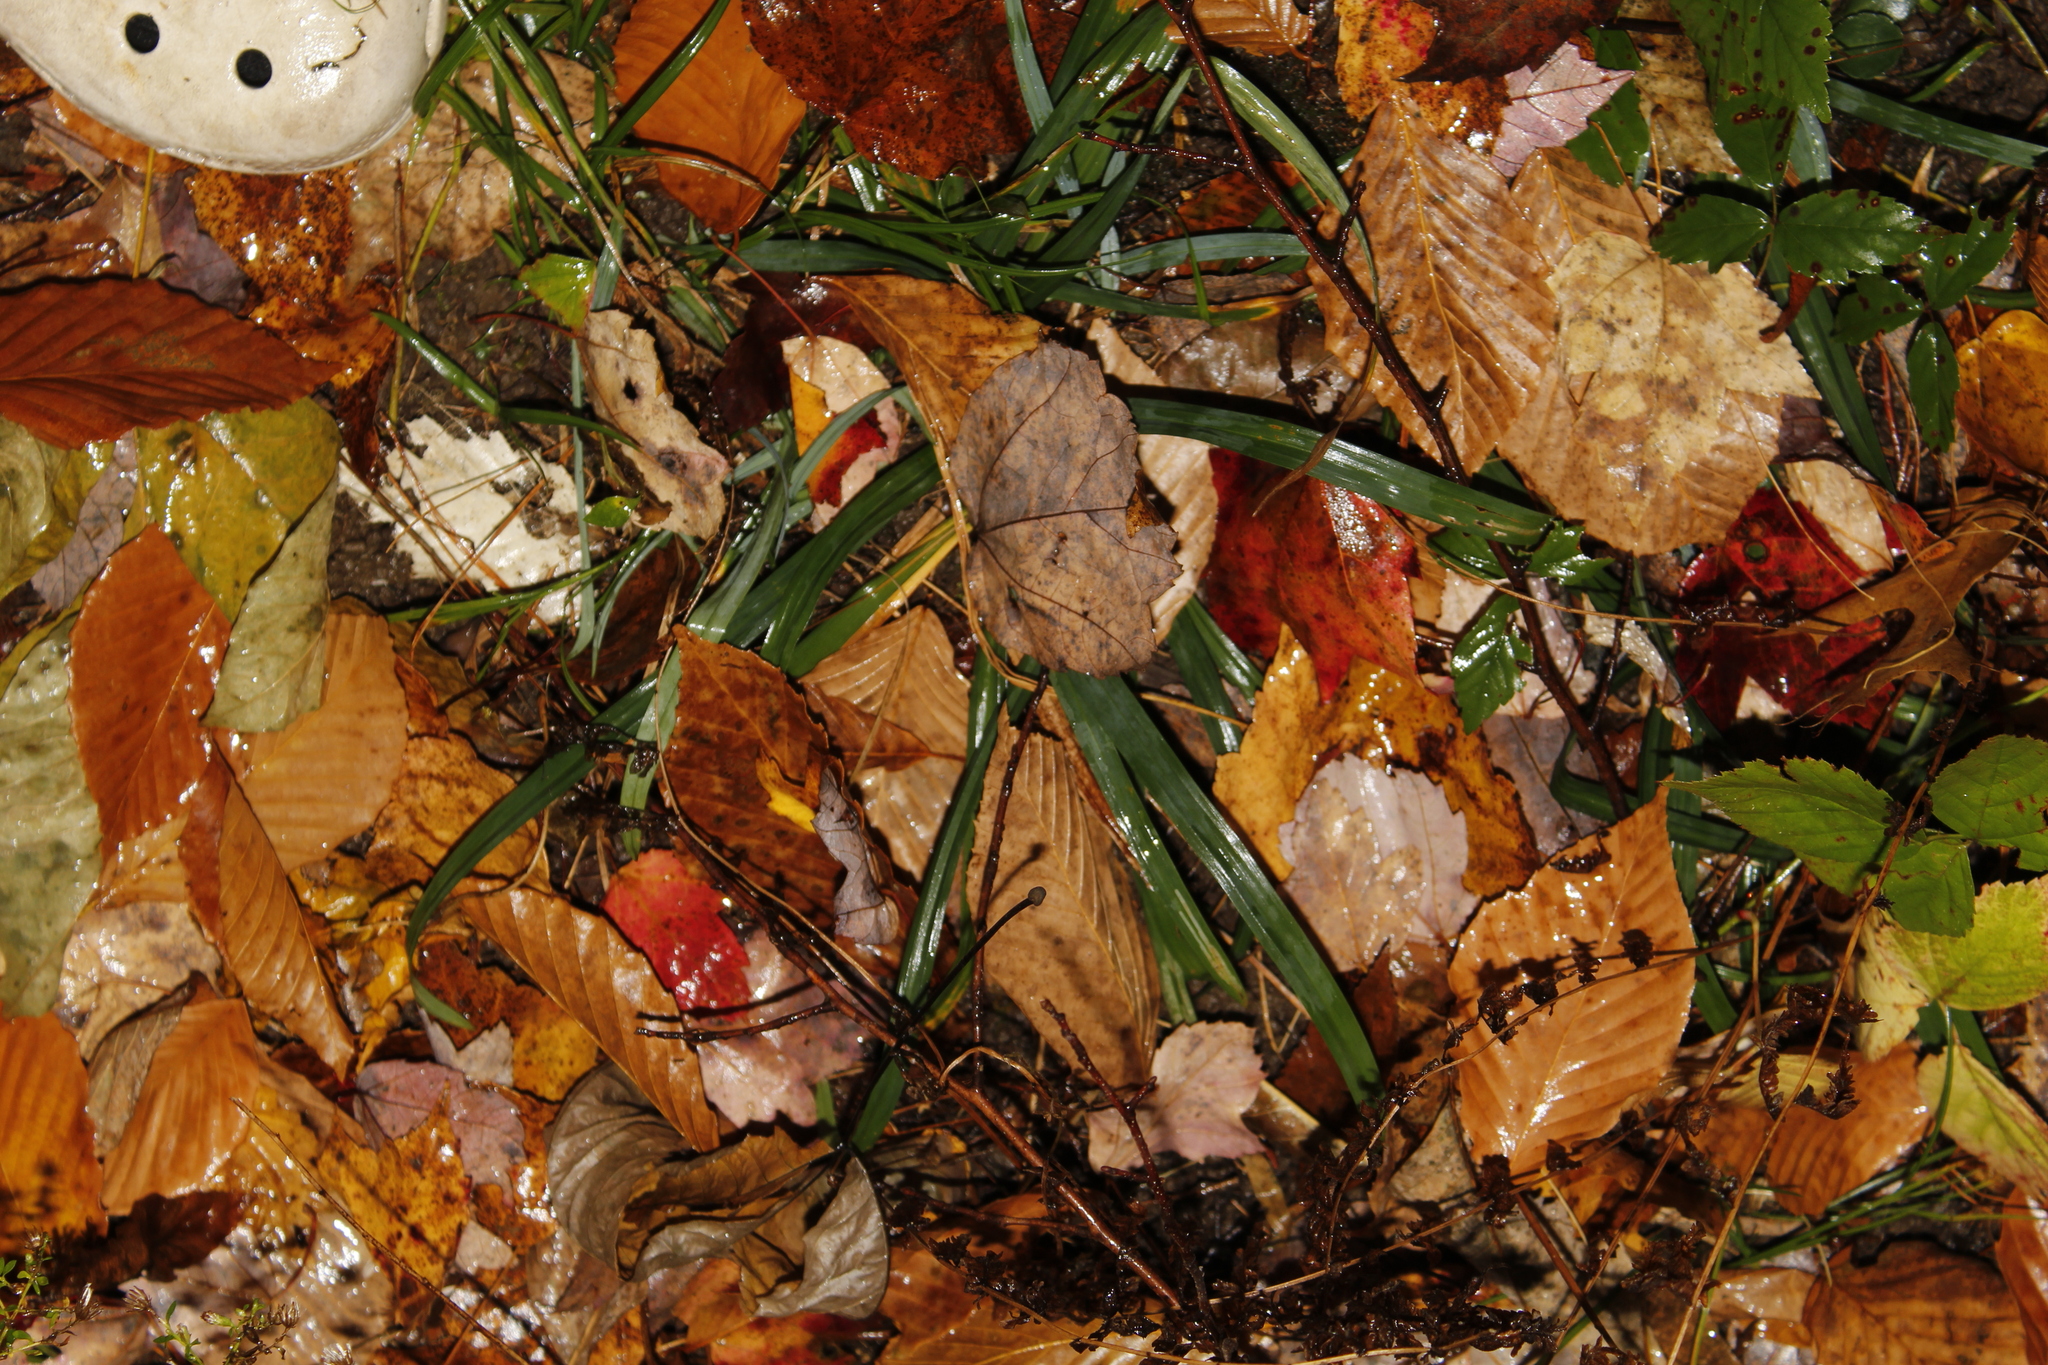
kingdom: Plantae
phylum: Tracheophyta
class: Liliopsida
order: Poales
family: Cyperaceae
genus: Carex
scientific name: Carex
